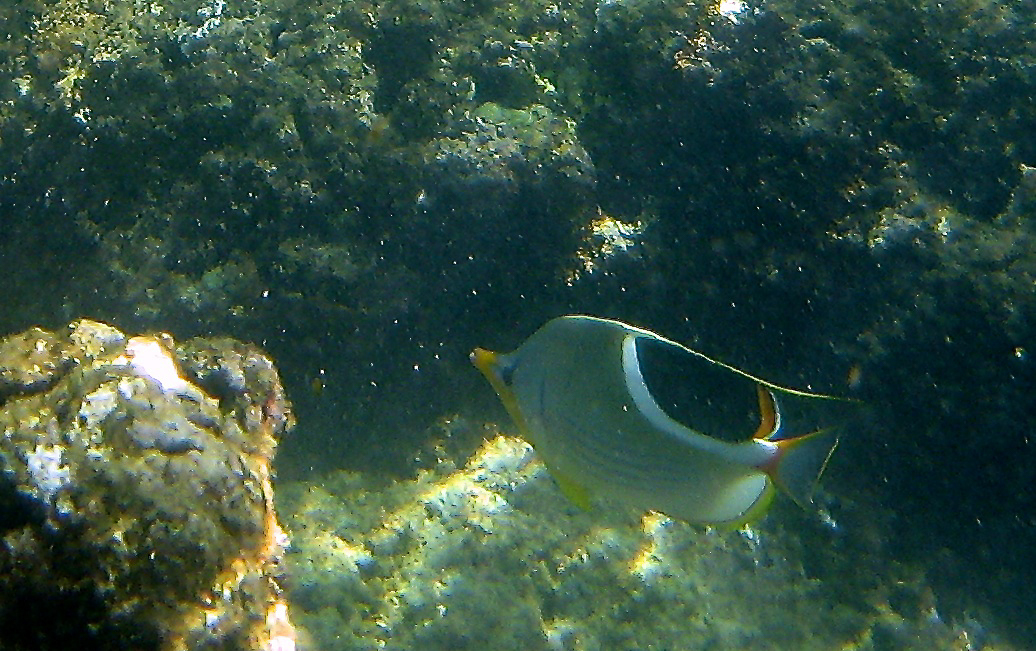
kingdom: Animalia
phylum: Chordata
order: Perciformes
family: Chaetodontidae
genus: Chaetodon
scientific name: Chaetodon ephippium
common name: Saddled butterflyfish
